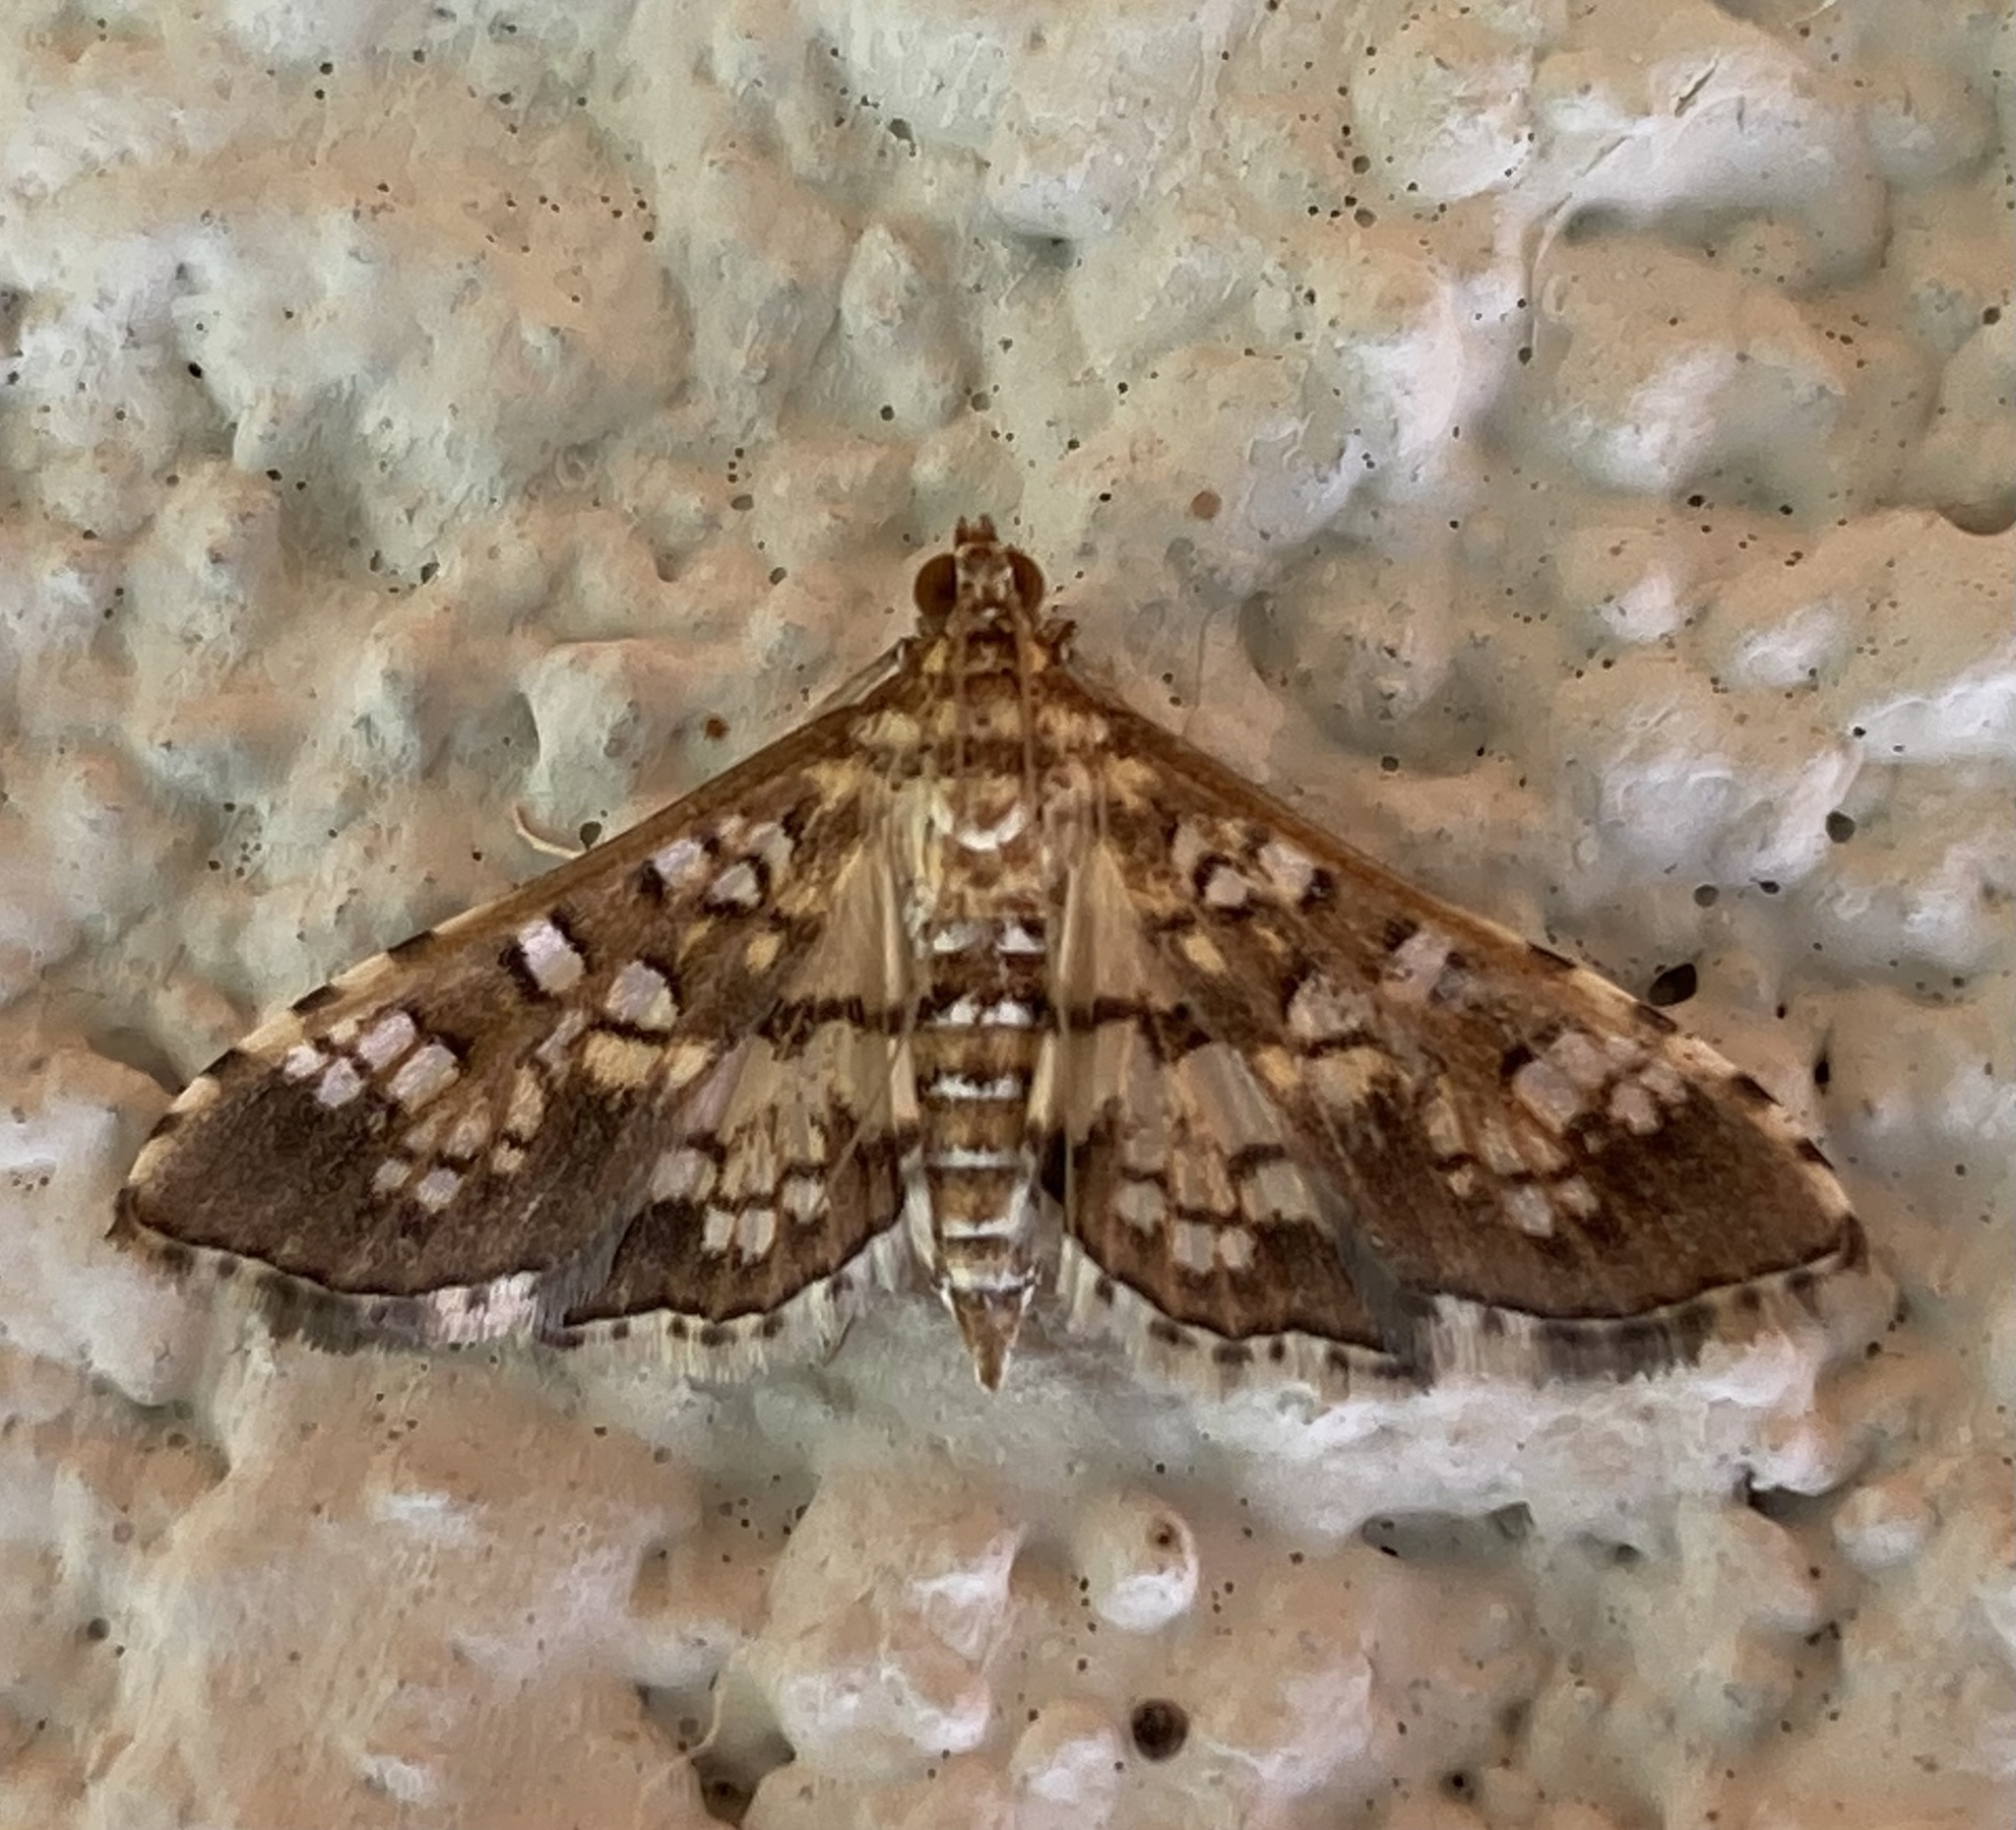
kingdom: Animalia
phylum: Arthropoda
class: Insecta
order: Lepidoptera
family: Crambidae
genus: Samea
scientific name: Samea ecclesialis
